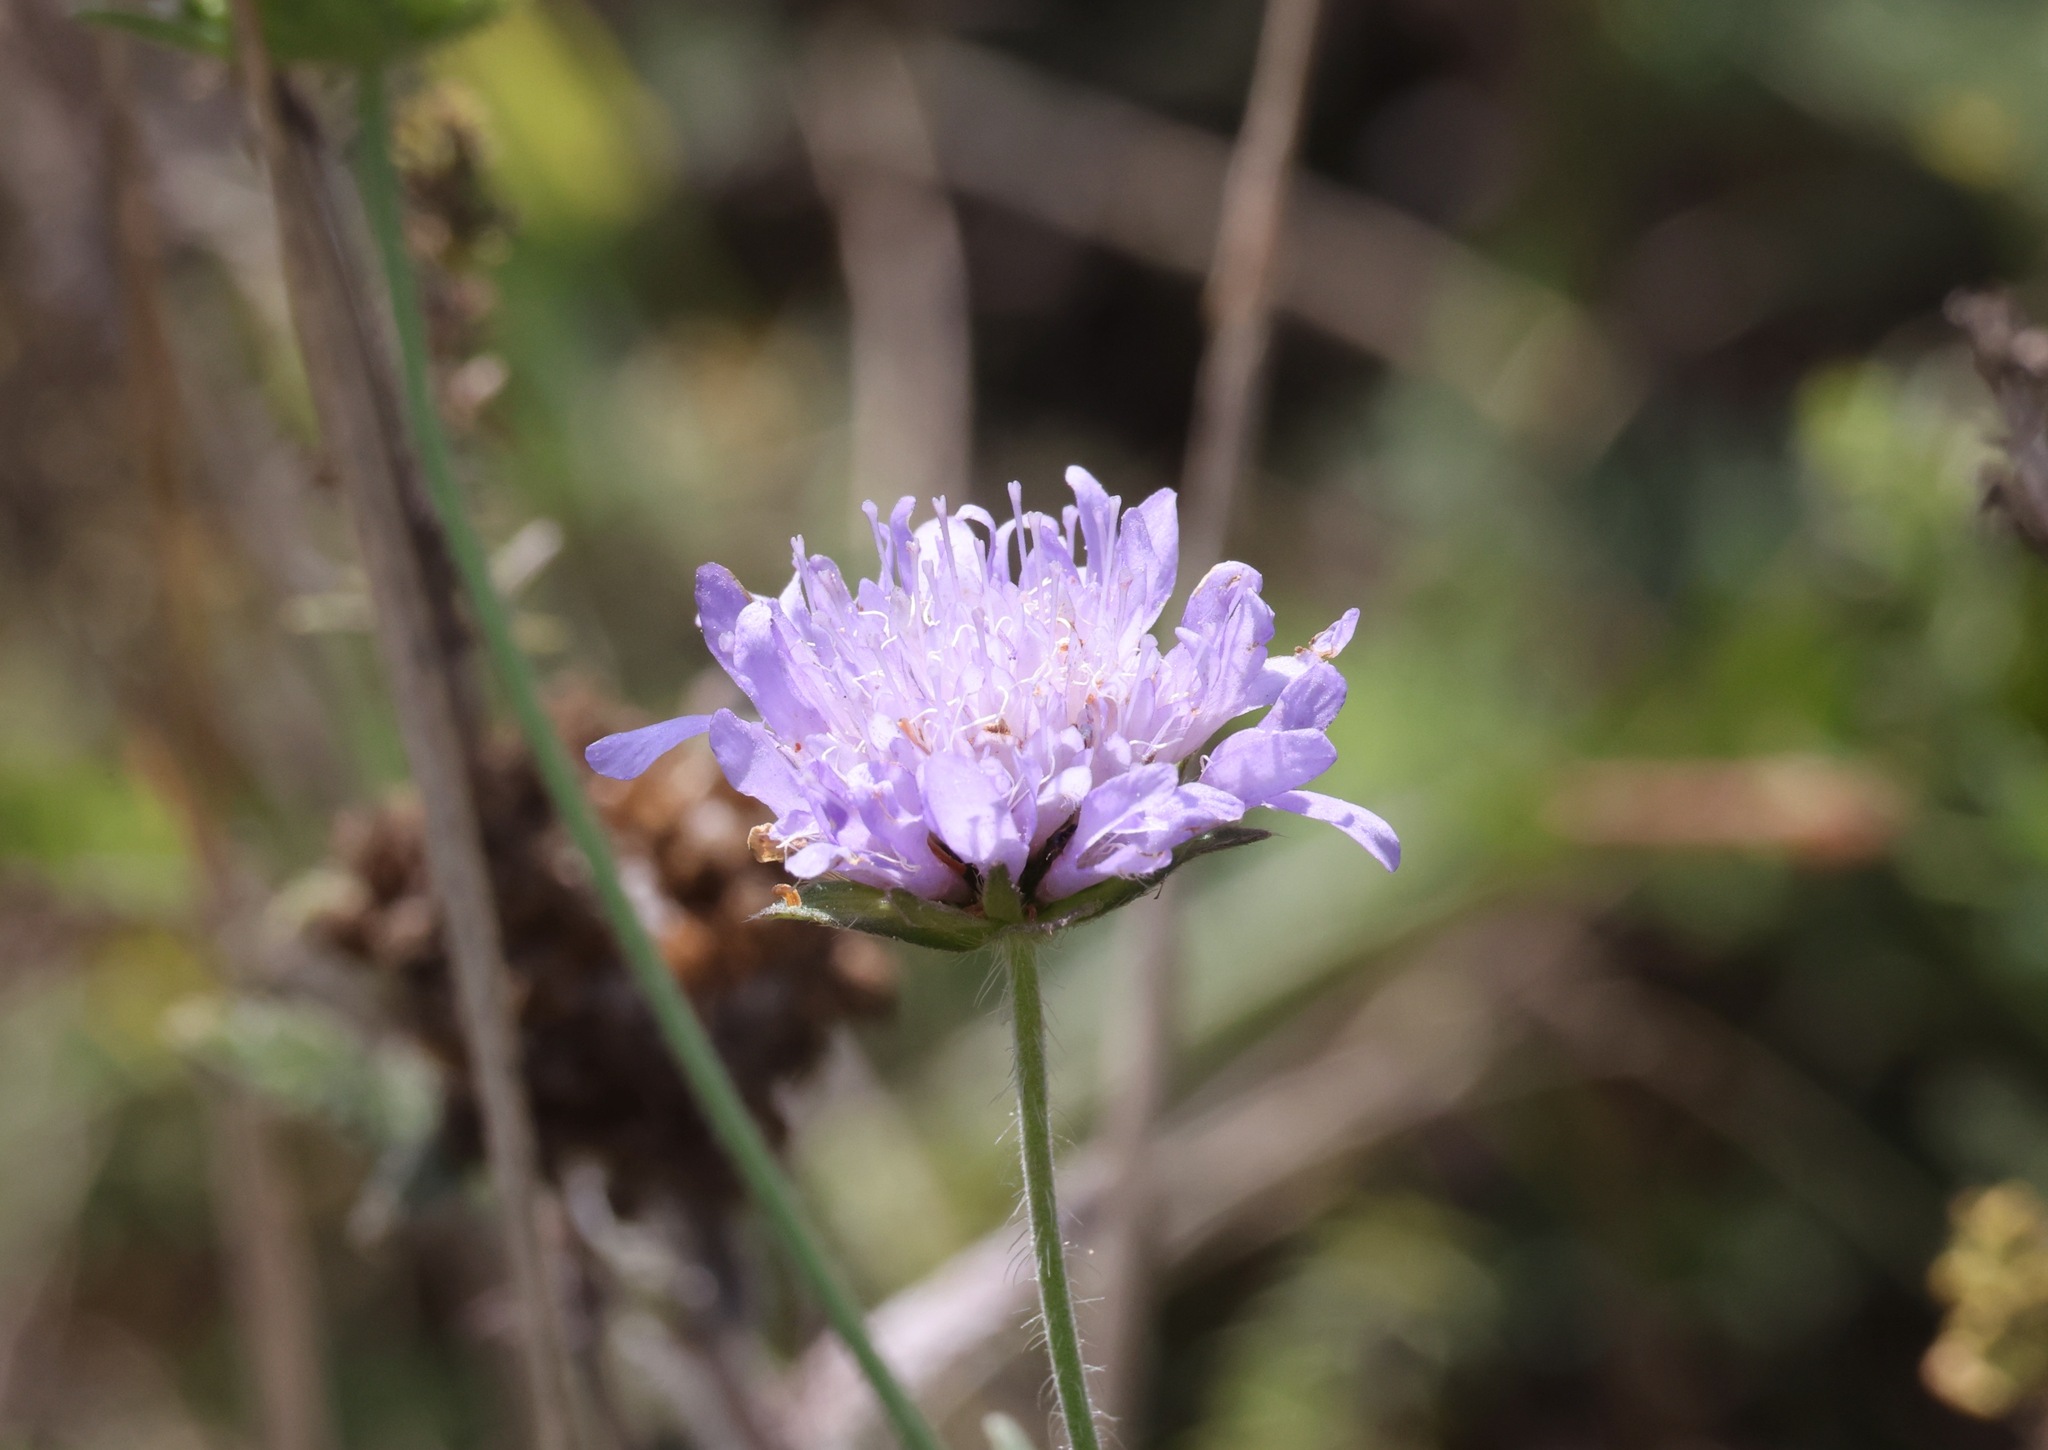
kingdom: Plantae
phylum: Tracheophyta
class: Magnoliopsida
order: Dipsacales
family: Caprifoliaceae
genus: Knautia
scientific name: Knautia arvensis
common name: Field scabiosa
